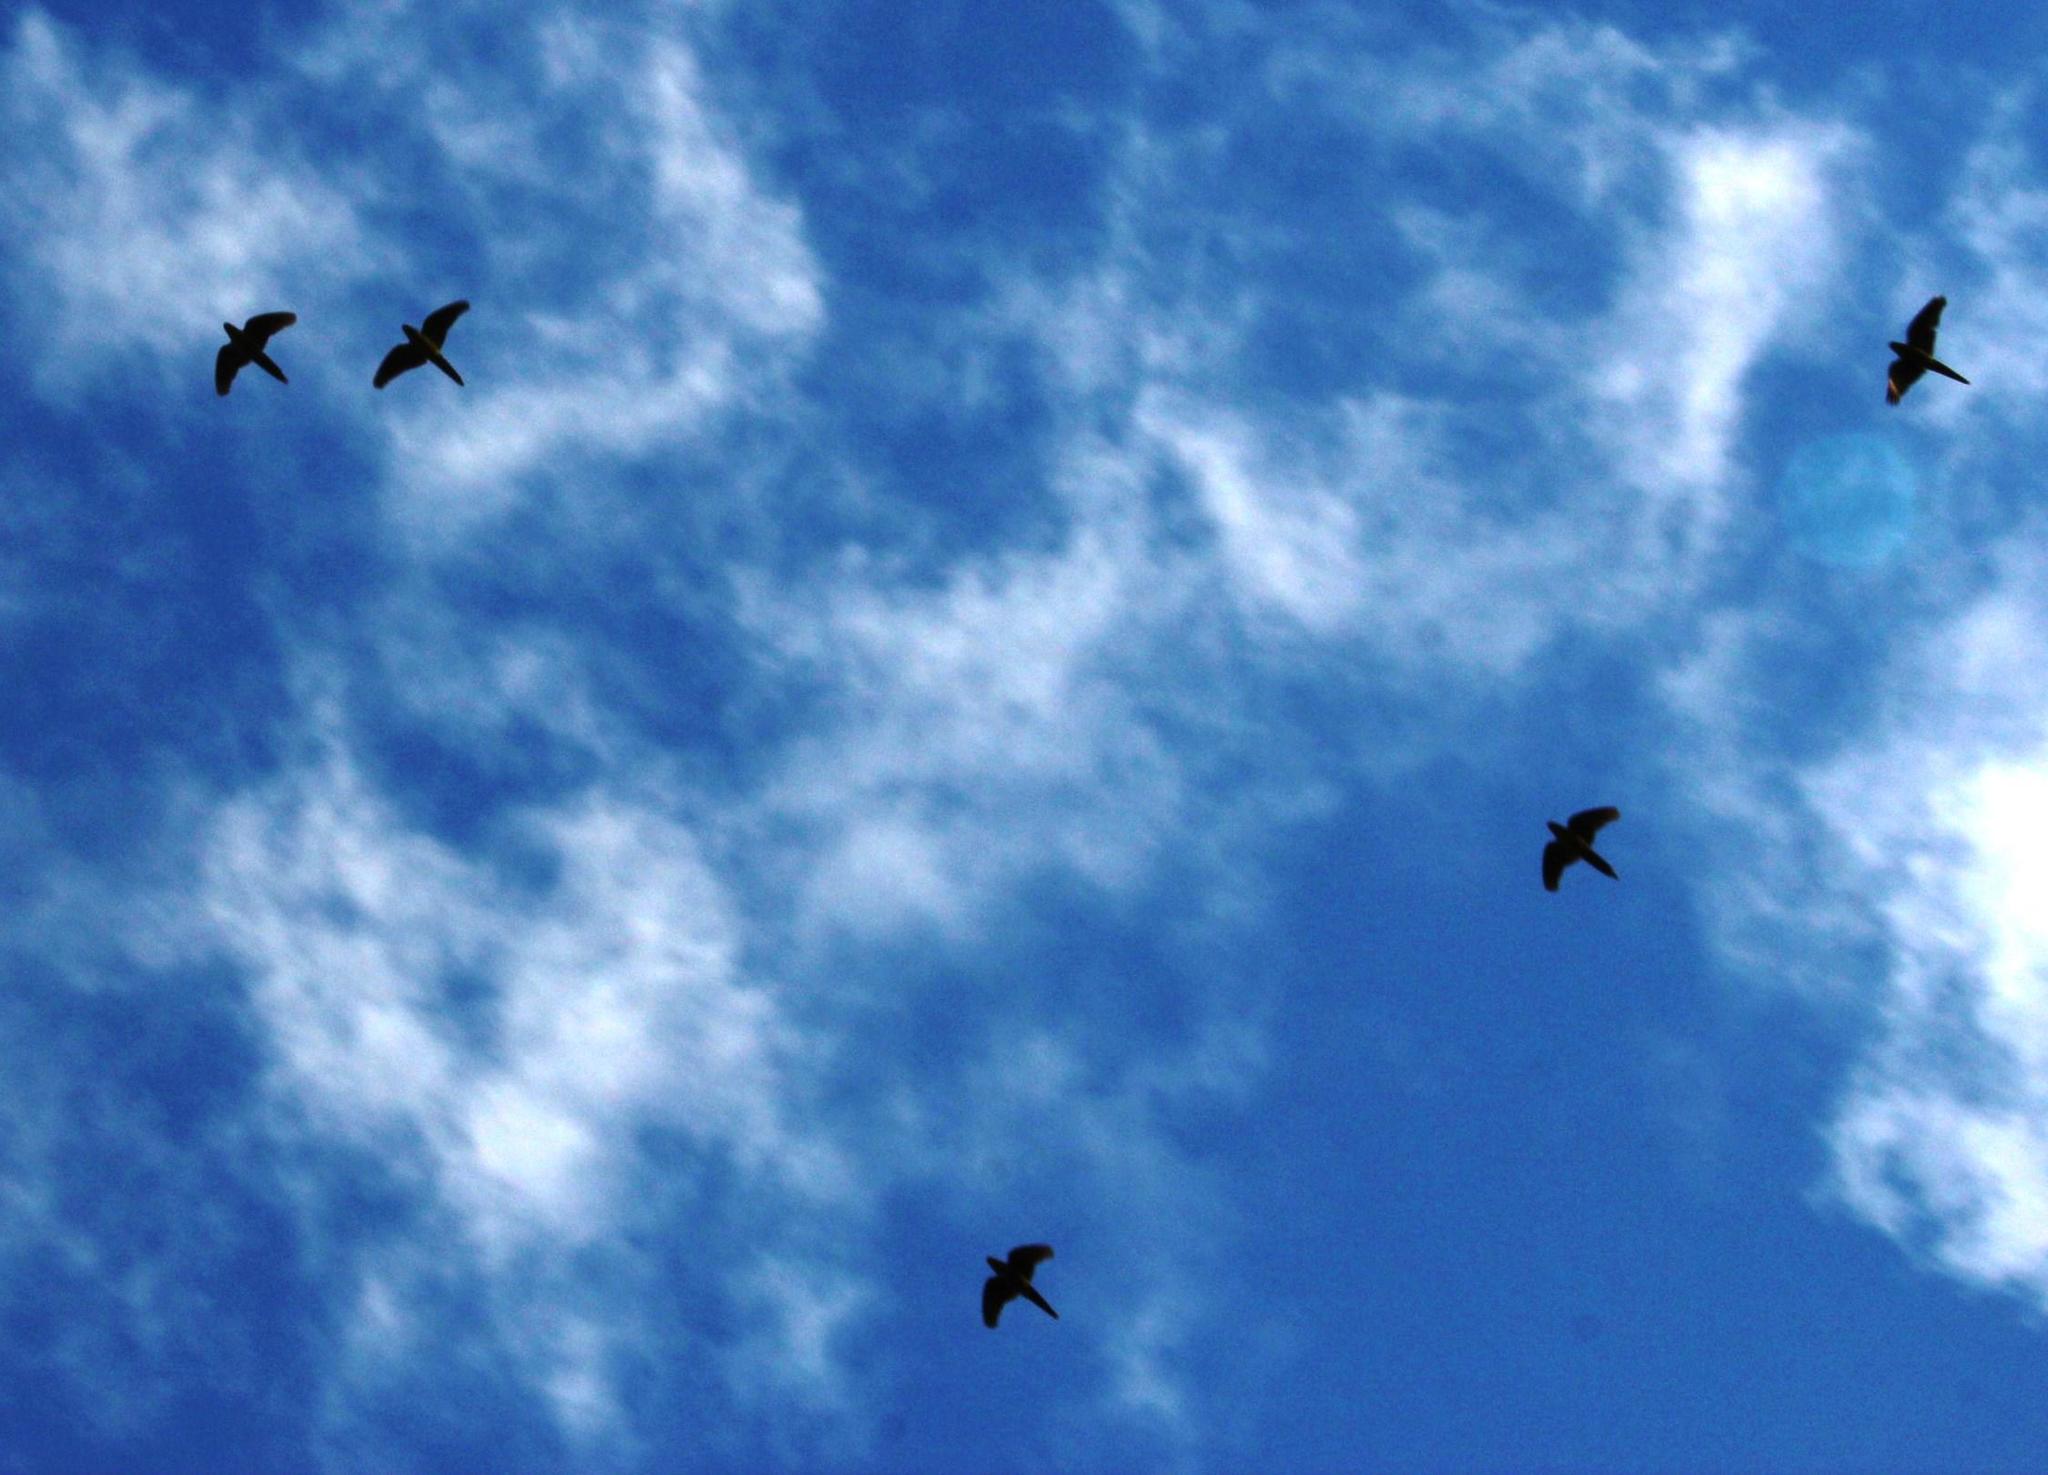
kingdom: Animalia
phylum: Chordata
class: Aves
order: Psittaciformes
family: Psittacidae
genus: Enicognathus
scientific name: Enicognathus
